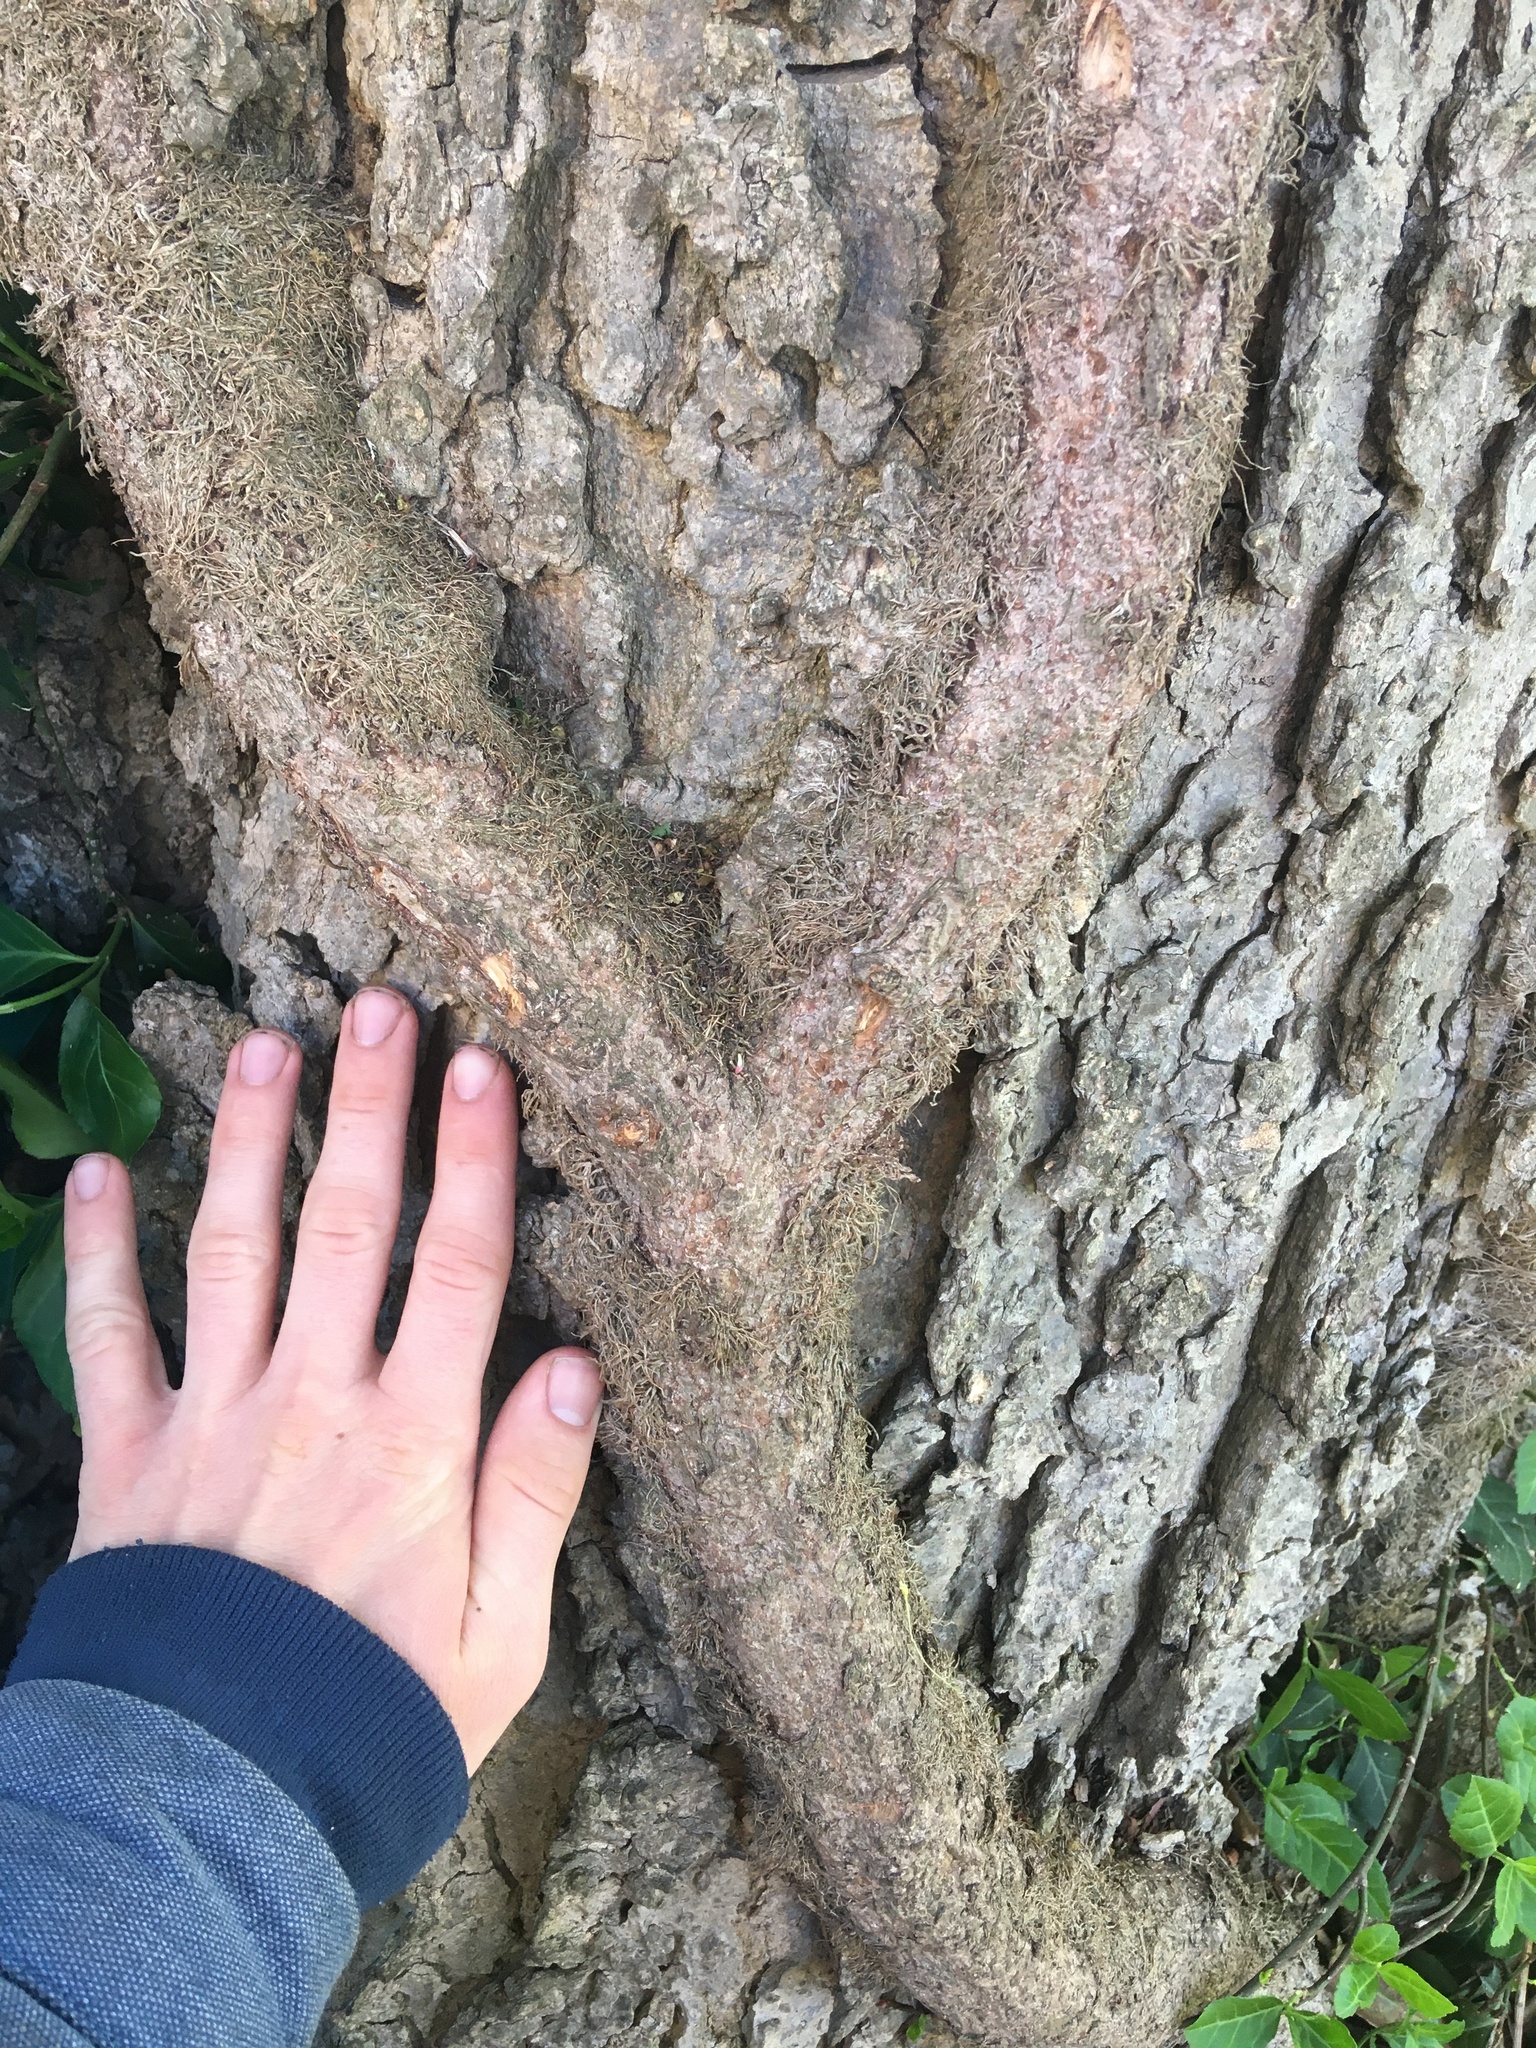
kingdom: Plantae
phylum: Tracheophyta
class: Magnoliopsida
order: Celastrales
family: Celastraceae
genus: Euonymus
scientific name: Euonymus fortunei
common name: Climbing euonymus
